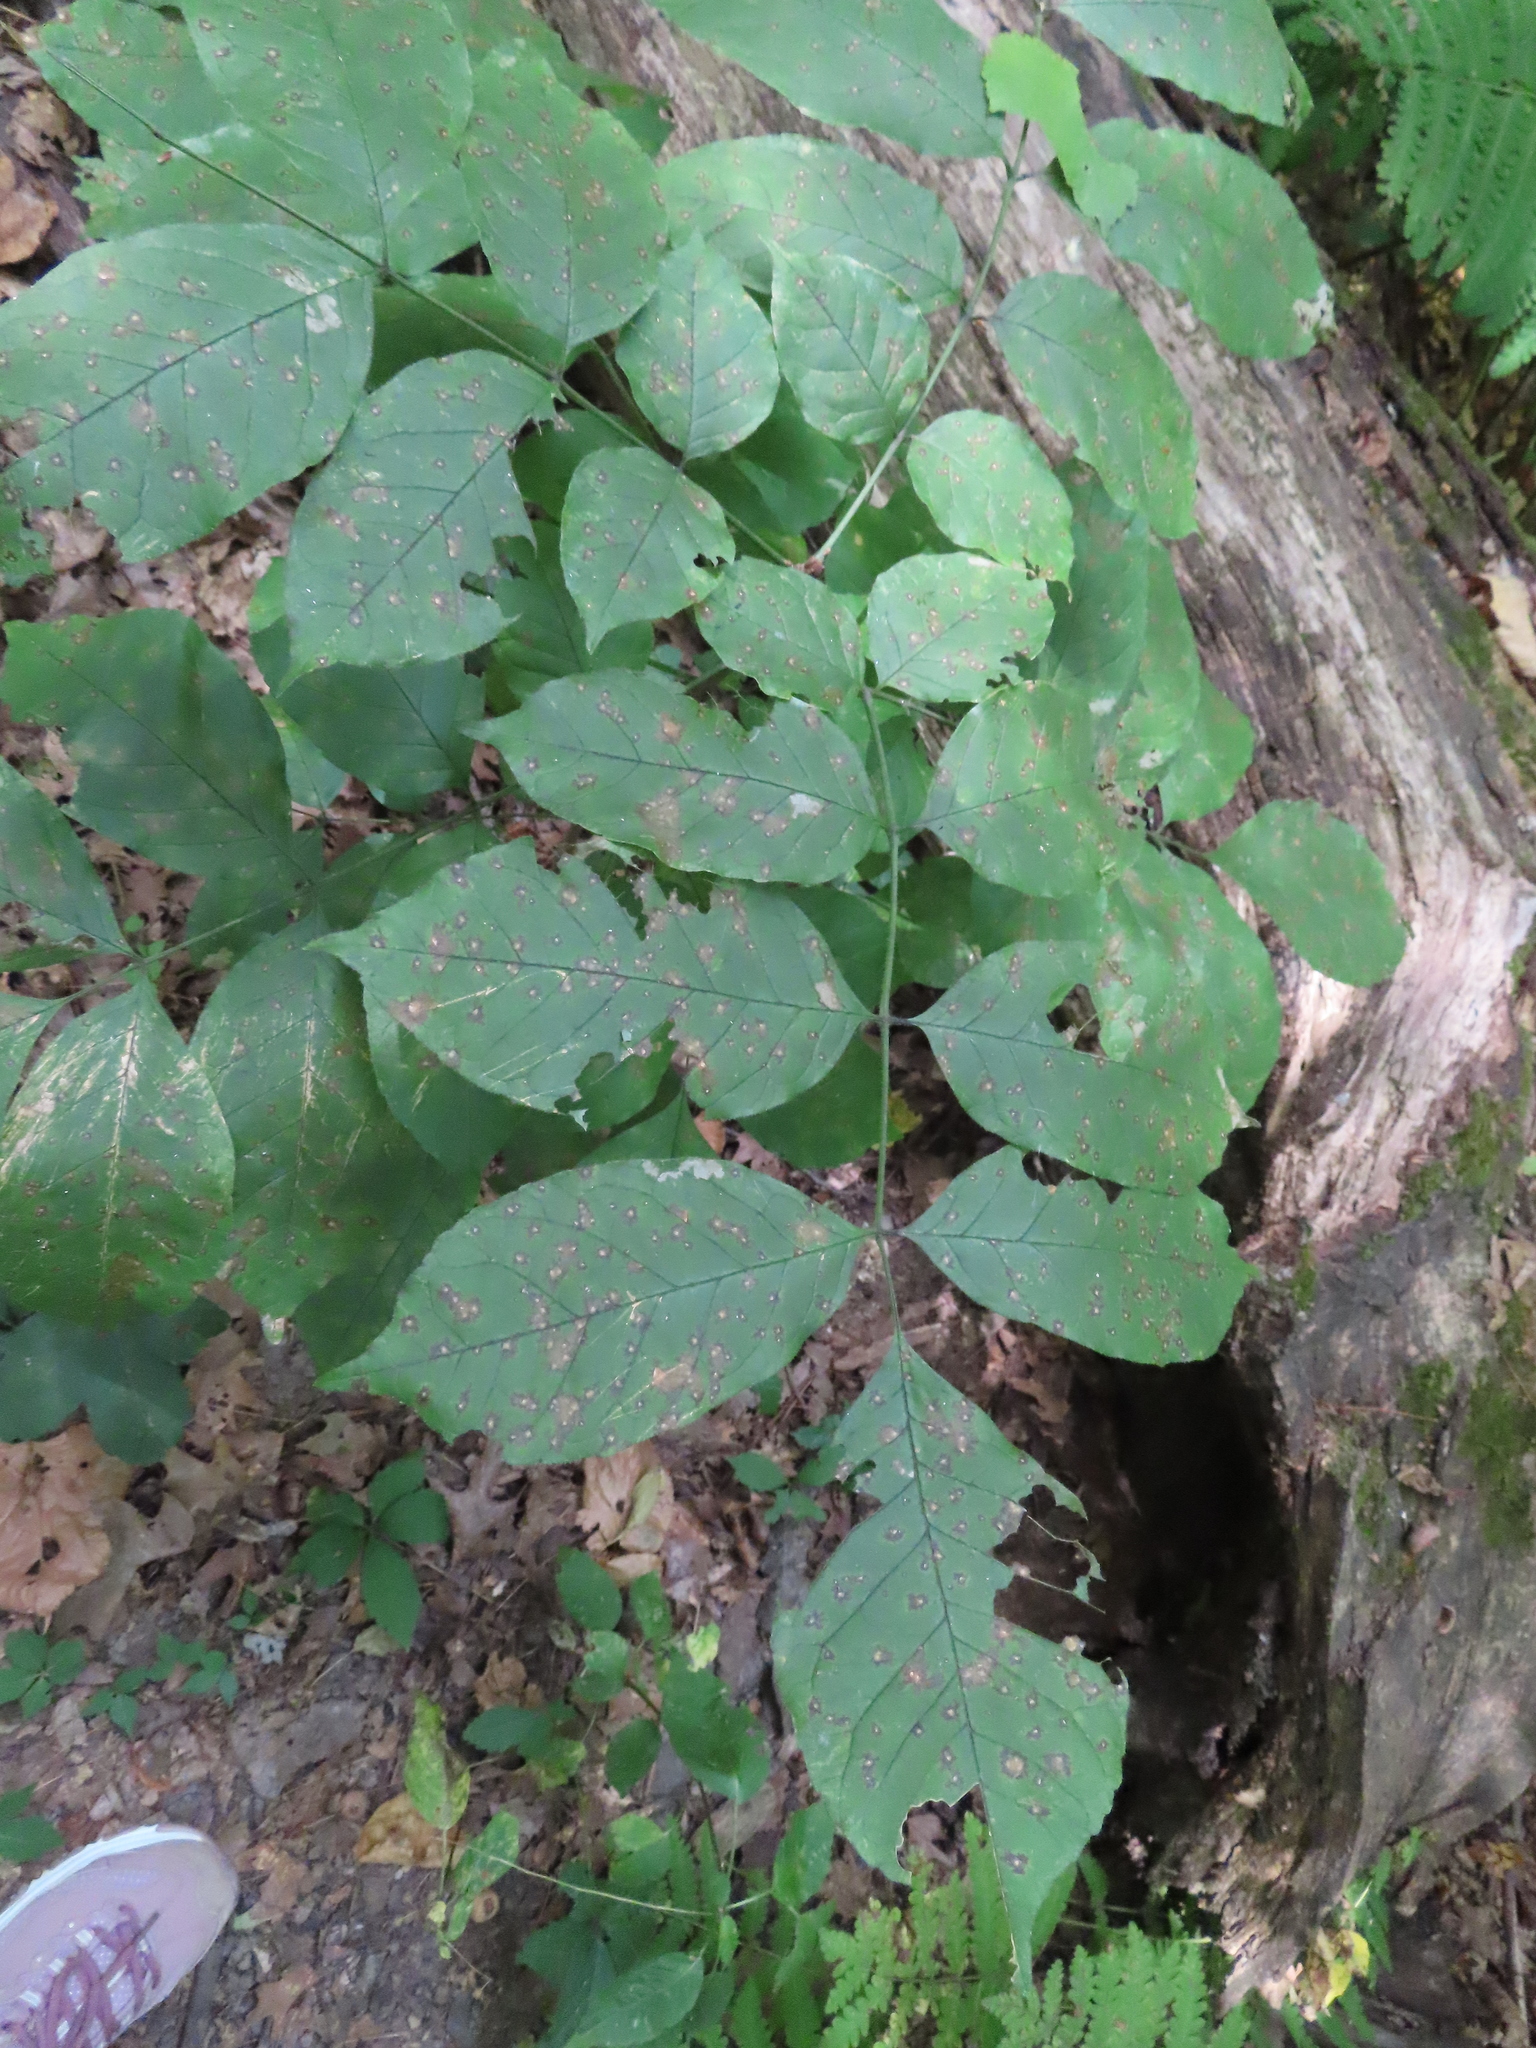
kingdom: Plantae
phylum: Tracheophyta
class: Magnoliopsida
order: Apiales
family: Araliaceae
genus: Aralia
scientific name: Aralia nudicaulis
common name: Wild sarsaparilla
